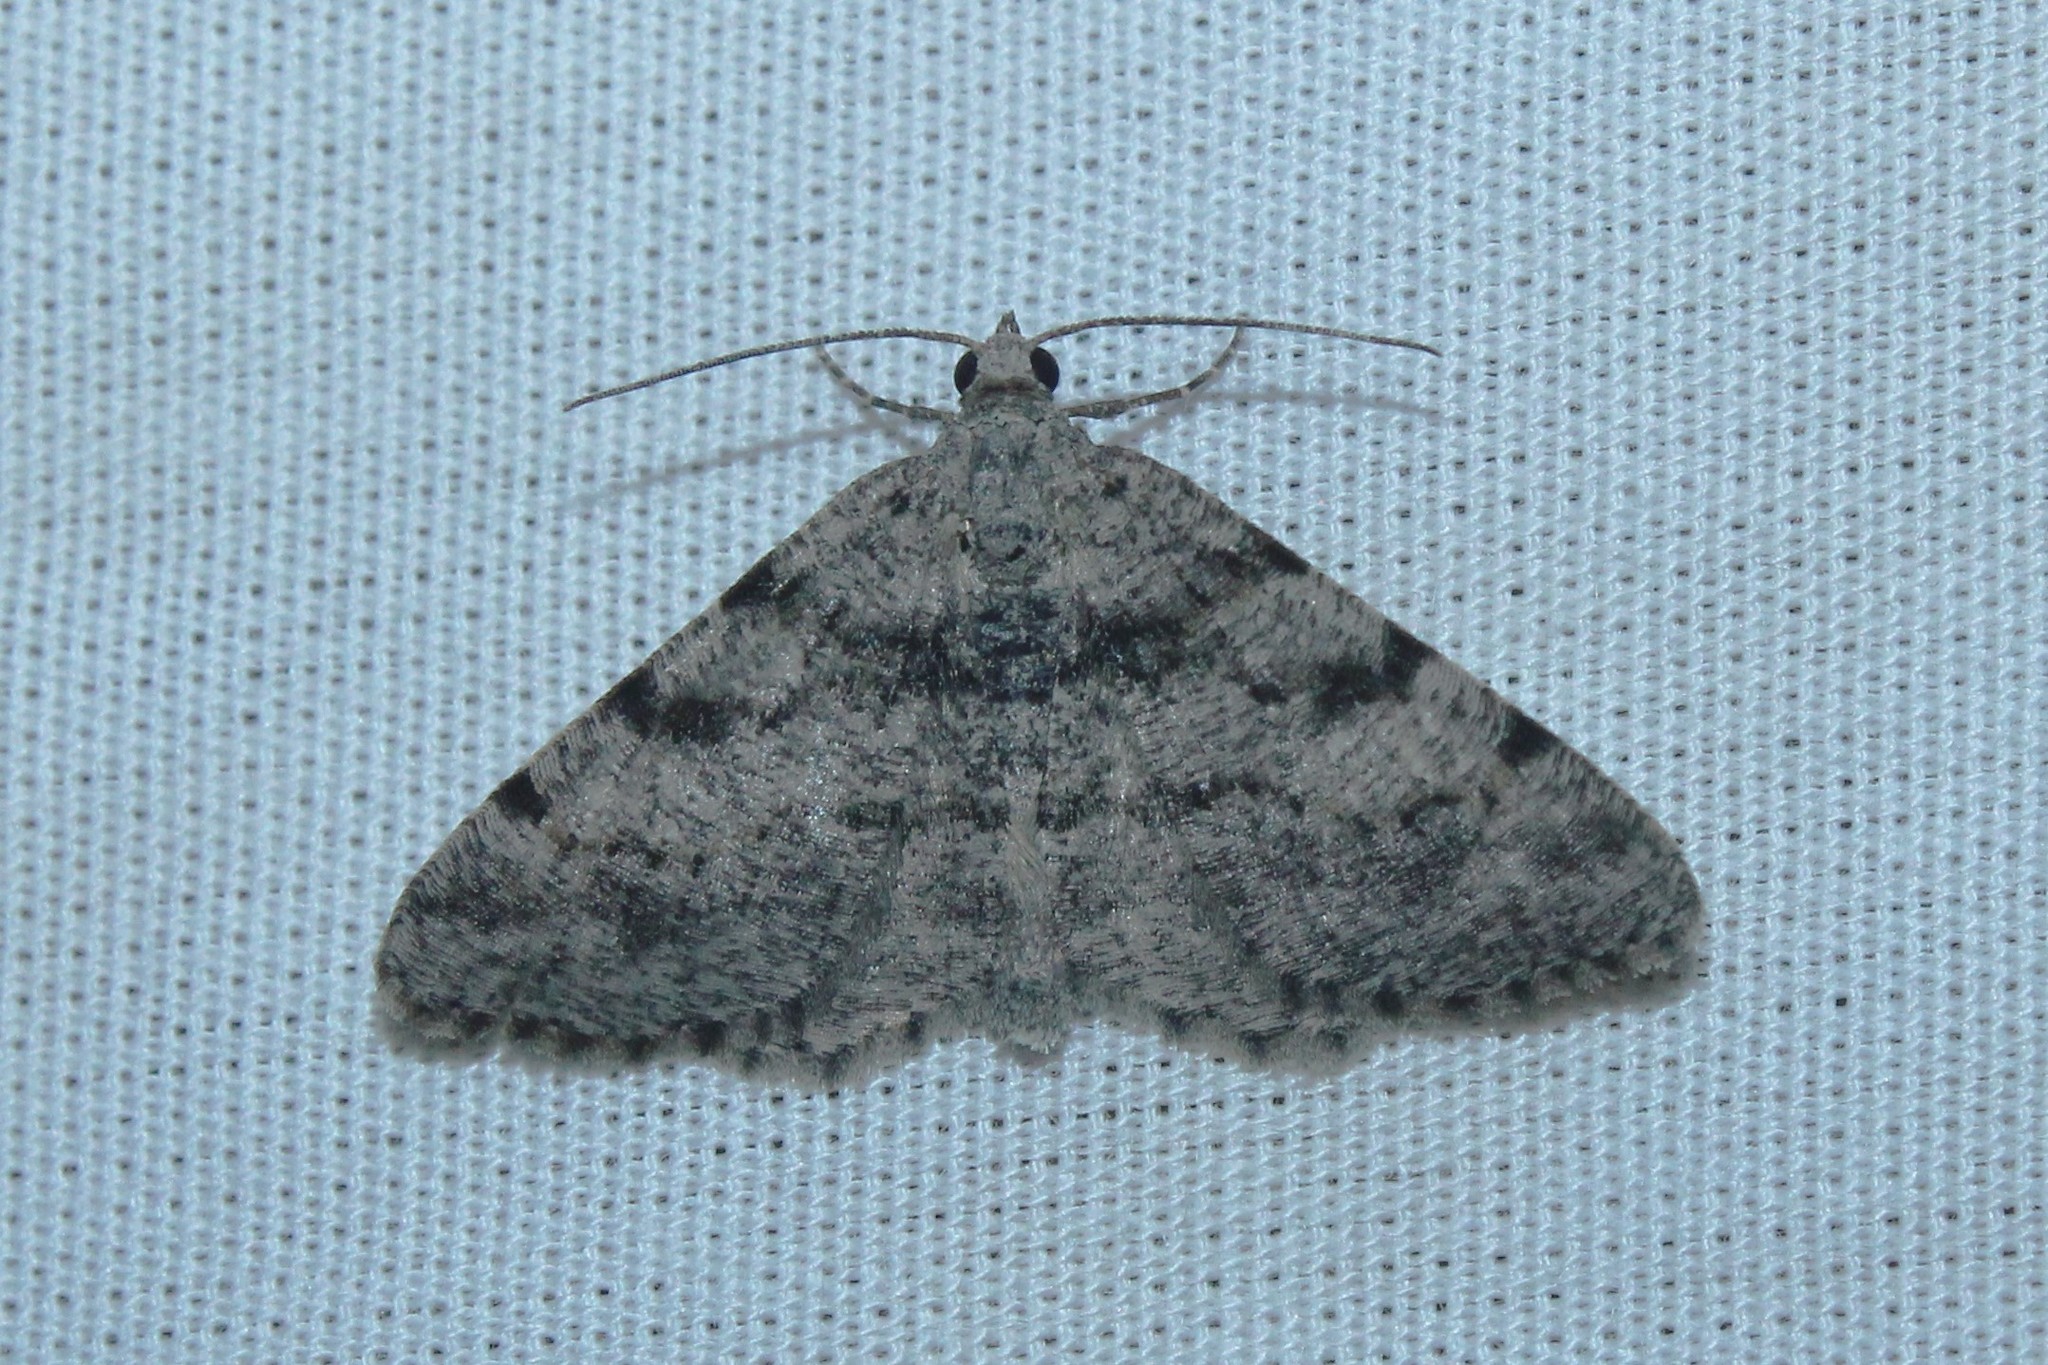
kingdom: Animalia
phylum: Arthropoda
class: Insecta
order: Lepidoptera
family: Geometridae
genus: Digrammia
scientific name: Digrammia gnophosaria
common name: Hollow-spotted angle
